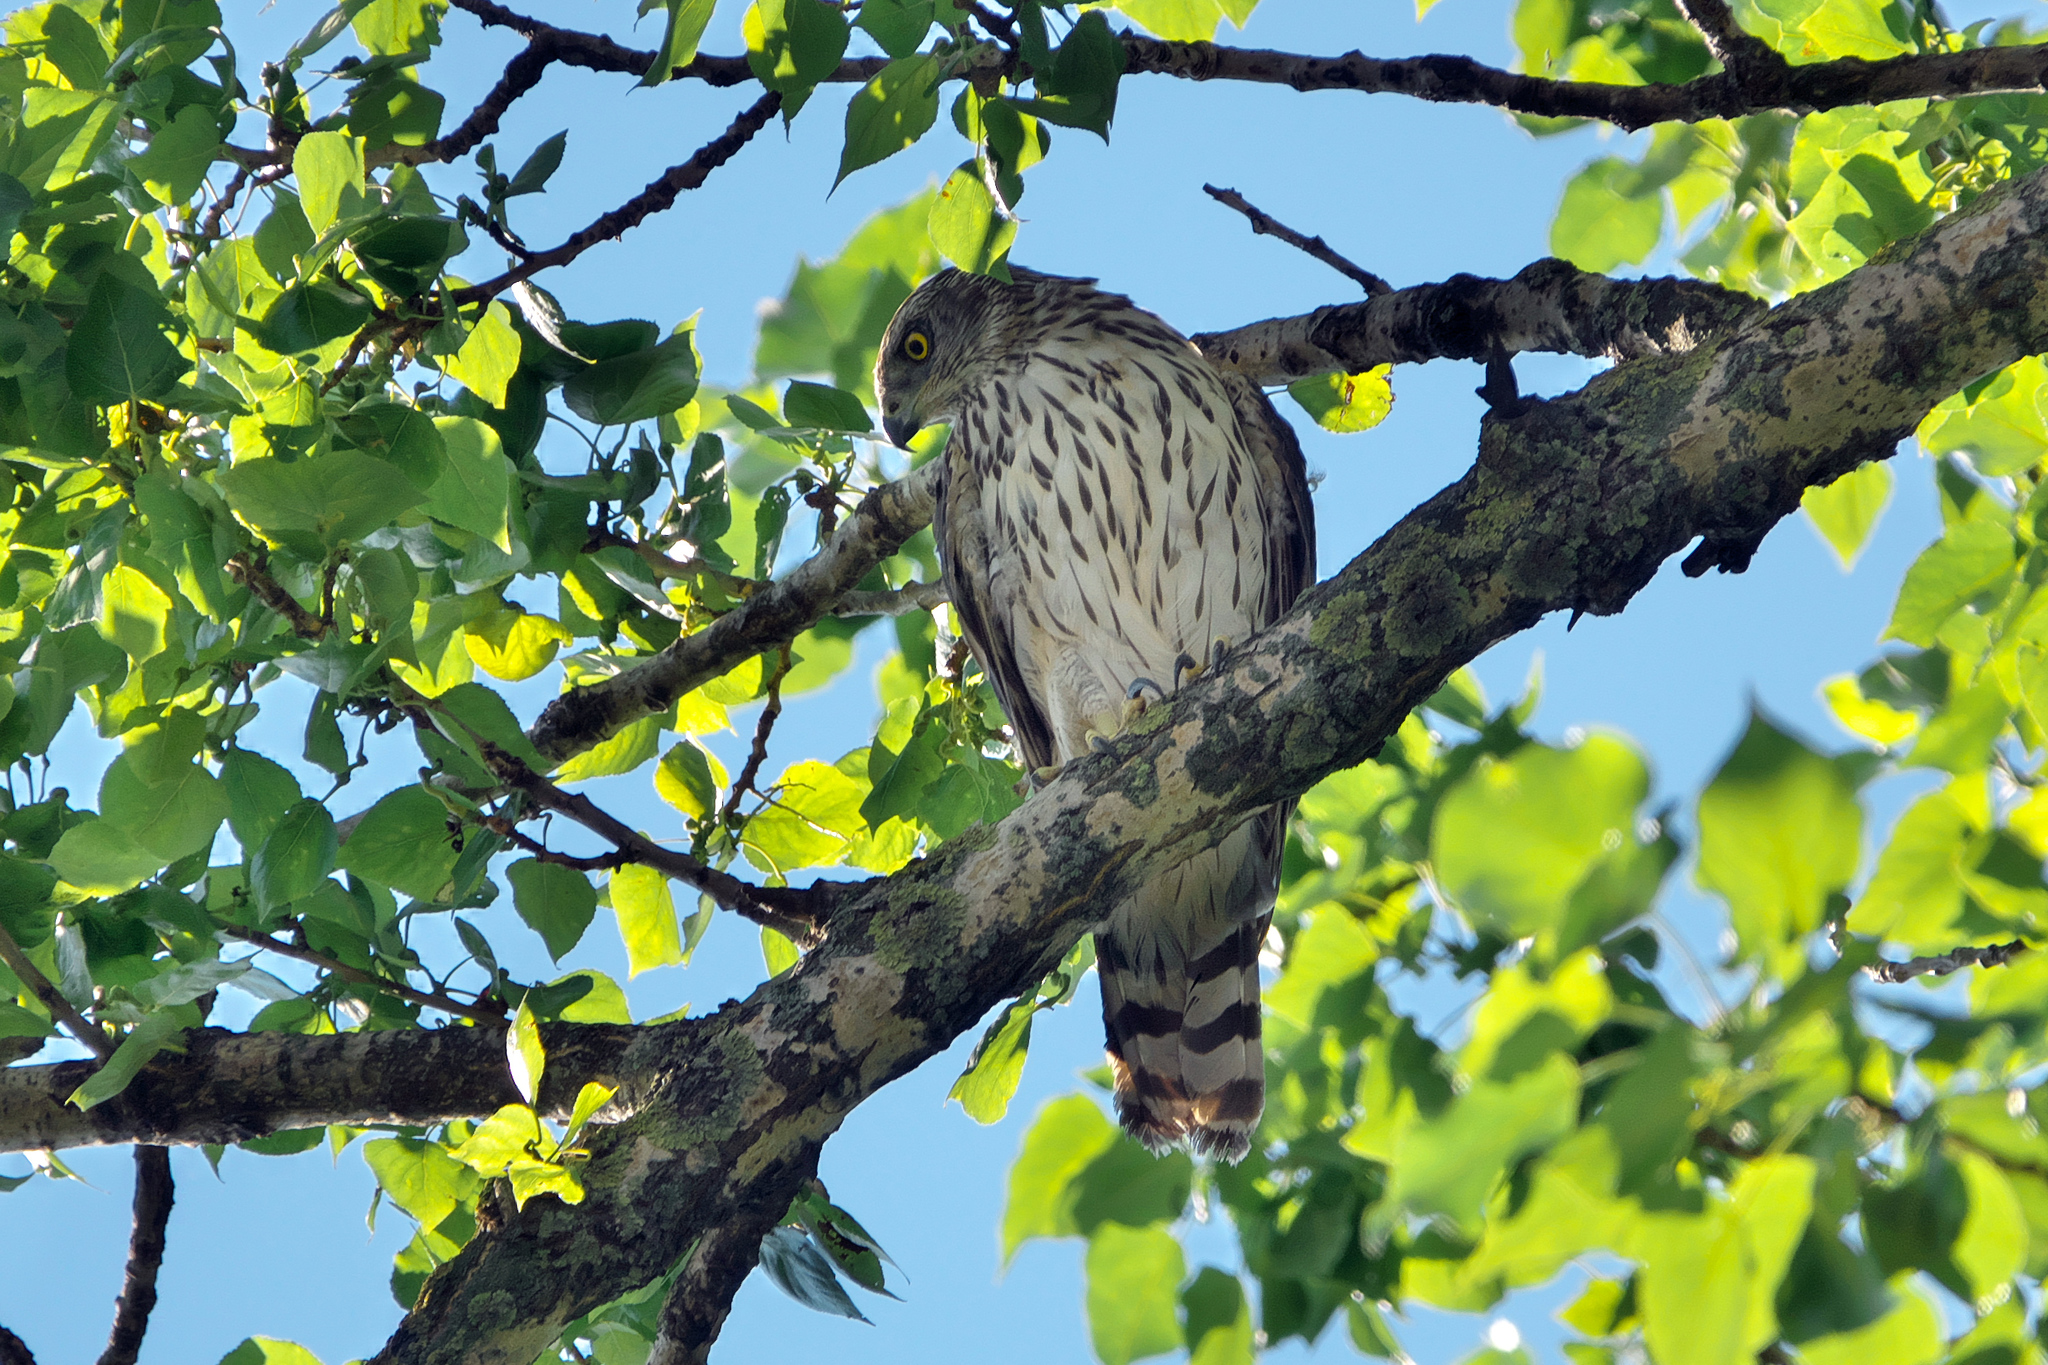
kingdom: Animalia
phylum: Chordata
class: Aves
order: Accipitriformes
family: Accipitridae
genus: Accipiter
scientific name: Accipiter gentilis
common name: Northern goshawk
